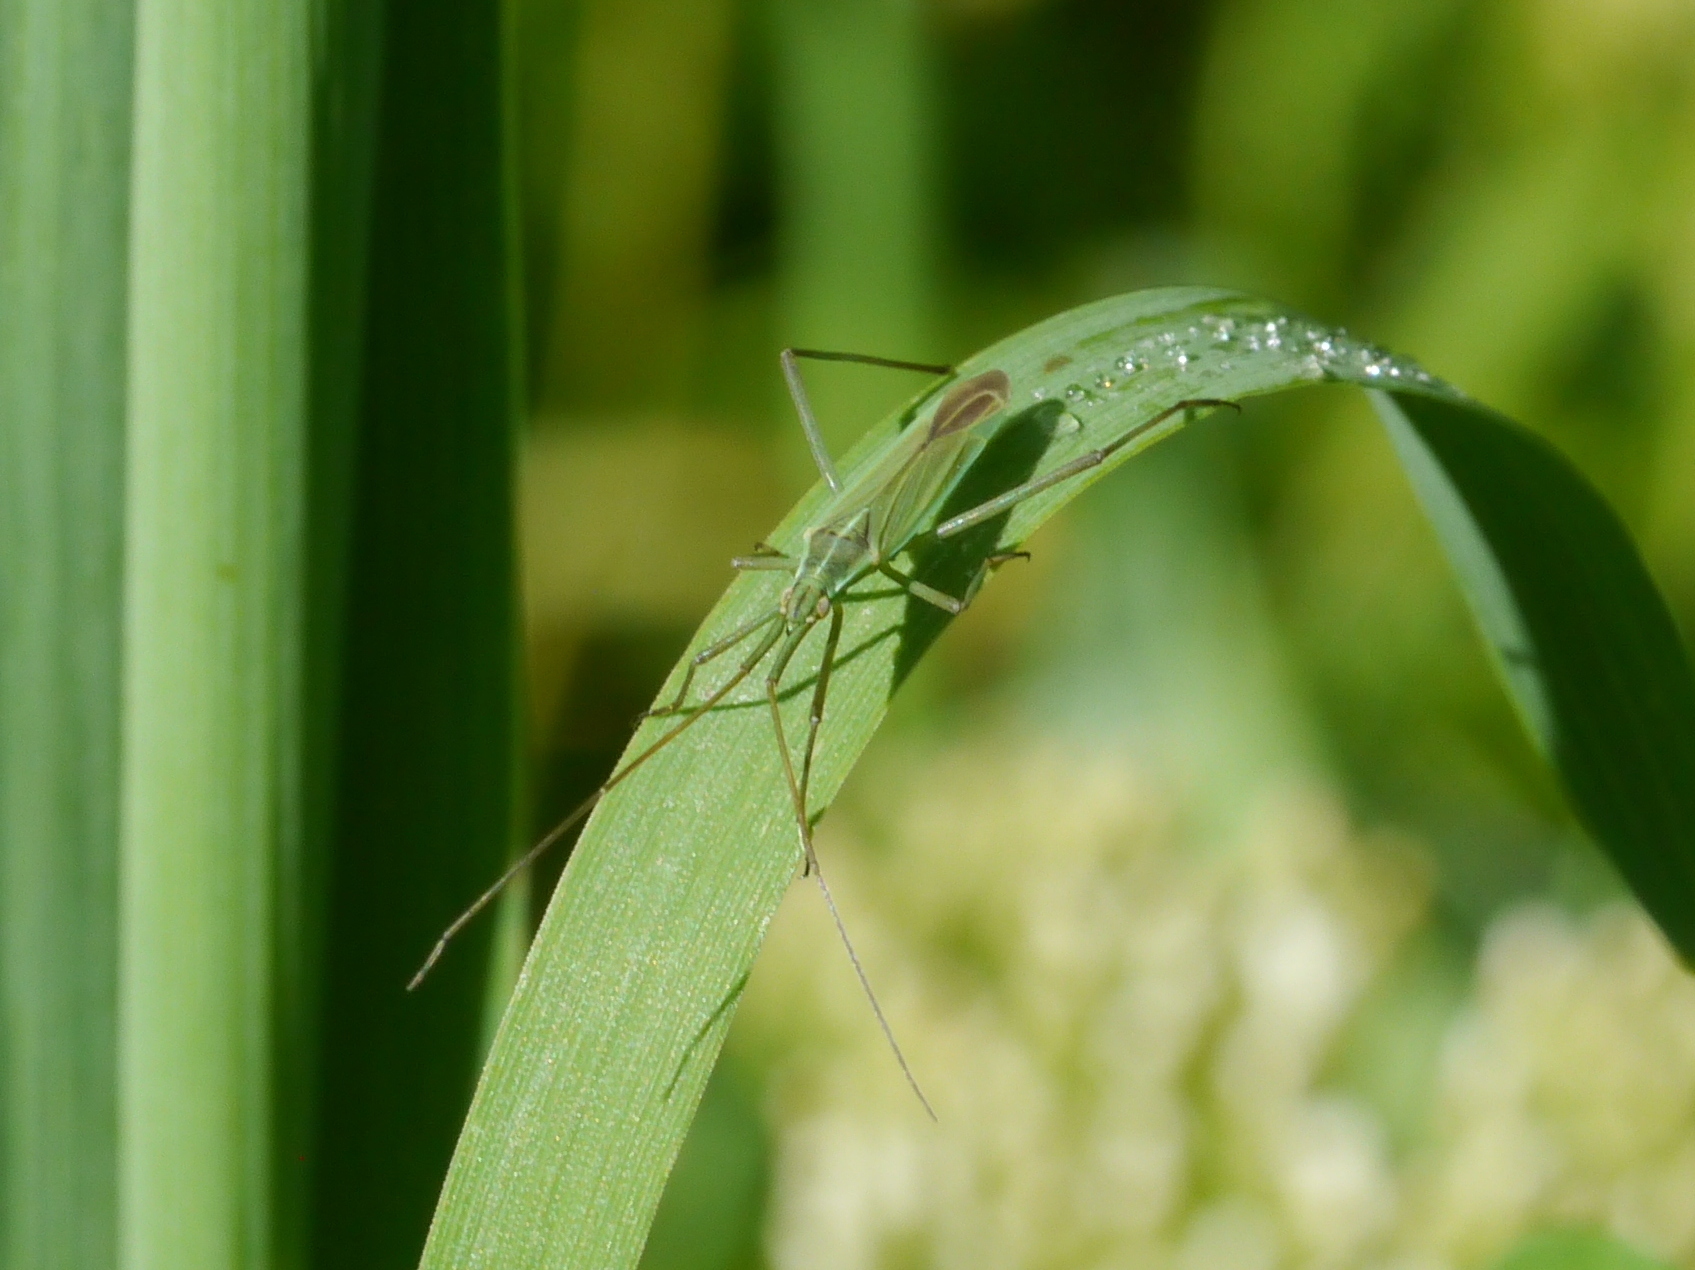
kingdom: Animalia
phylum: Arthropoda
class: Insecta
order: Hemiptera
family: Miridae
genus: Megaloceroea
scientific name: Megaloceroea recticornis
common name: Plant bug
